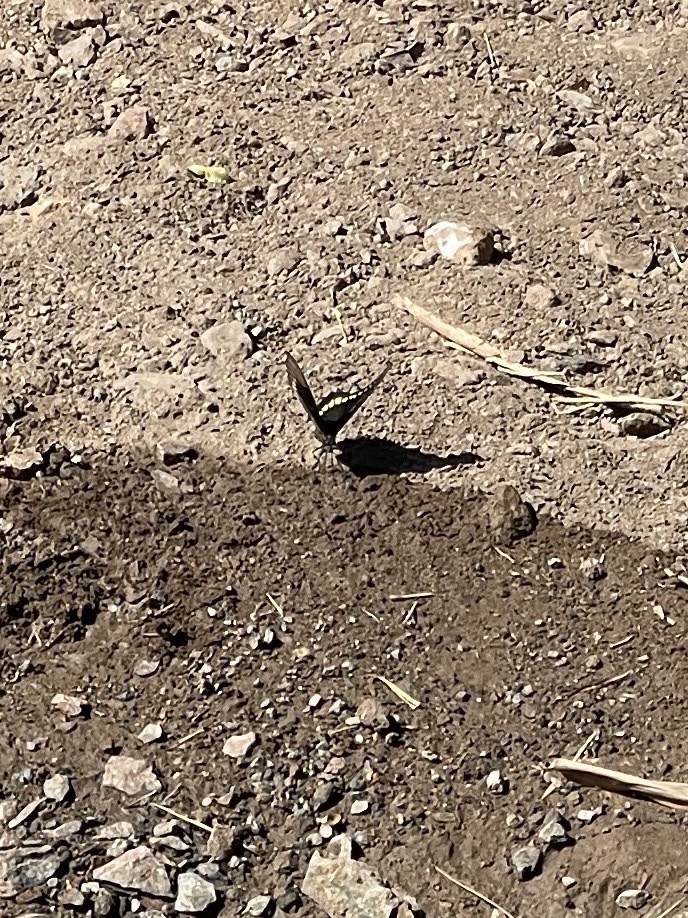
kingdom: Animalia
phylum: Arthropoda
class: Insecta
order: Lepidoptera
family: Papilionidae
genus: Battus
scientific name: Battus polydamas
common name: Polydamas swallowtail
